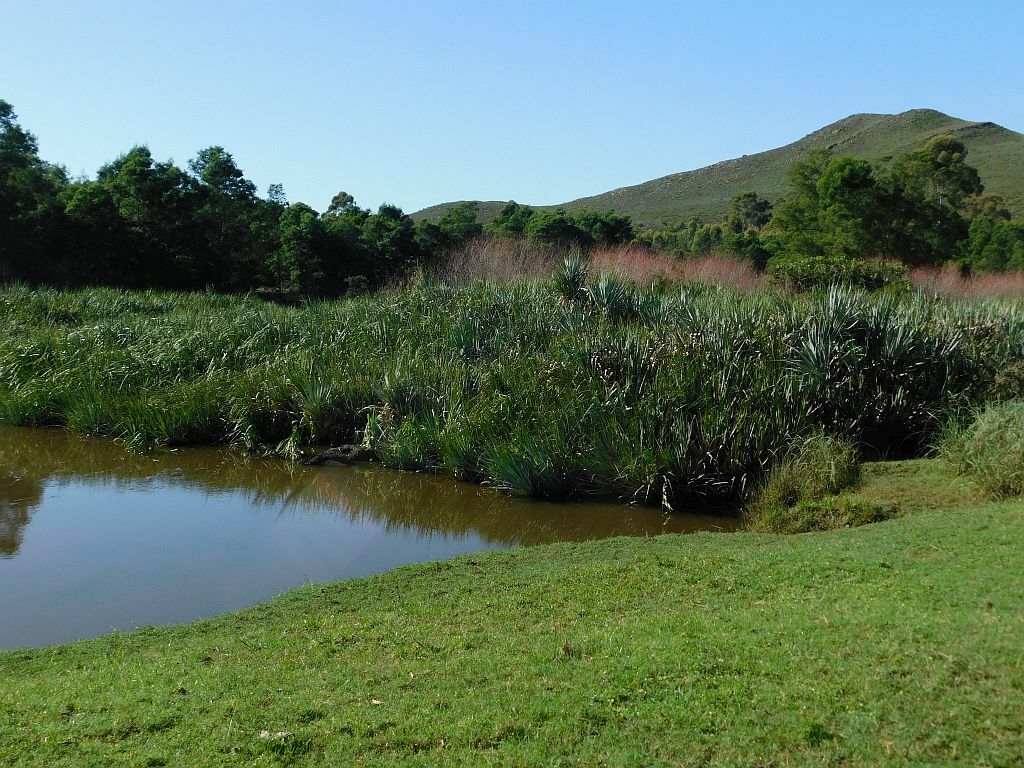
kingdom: Plantae
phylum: Tracheophyta
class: Liliopsida
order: Poales
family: Thurniaceae
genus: Prionium
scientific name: Prionium serratum
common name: Palmiet
